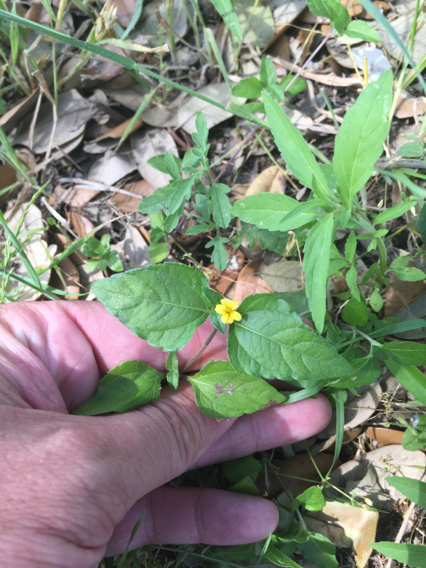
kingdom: Plantae
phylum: Tracheophyta
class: Magnoliopsida
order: Asterales
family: Asteraceae
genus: Calyptocarpus
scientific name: Calyptocarpus vialis
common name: Straggler daisy
